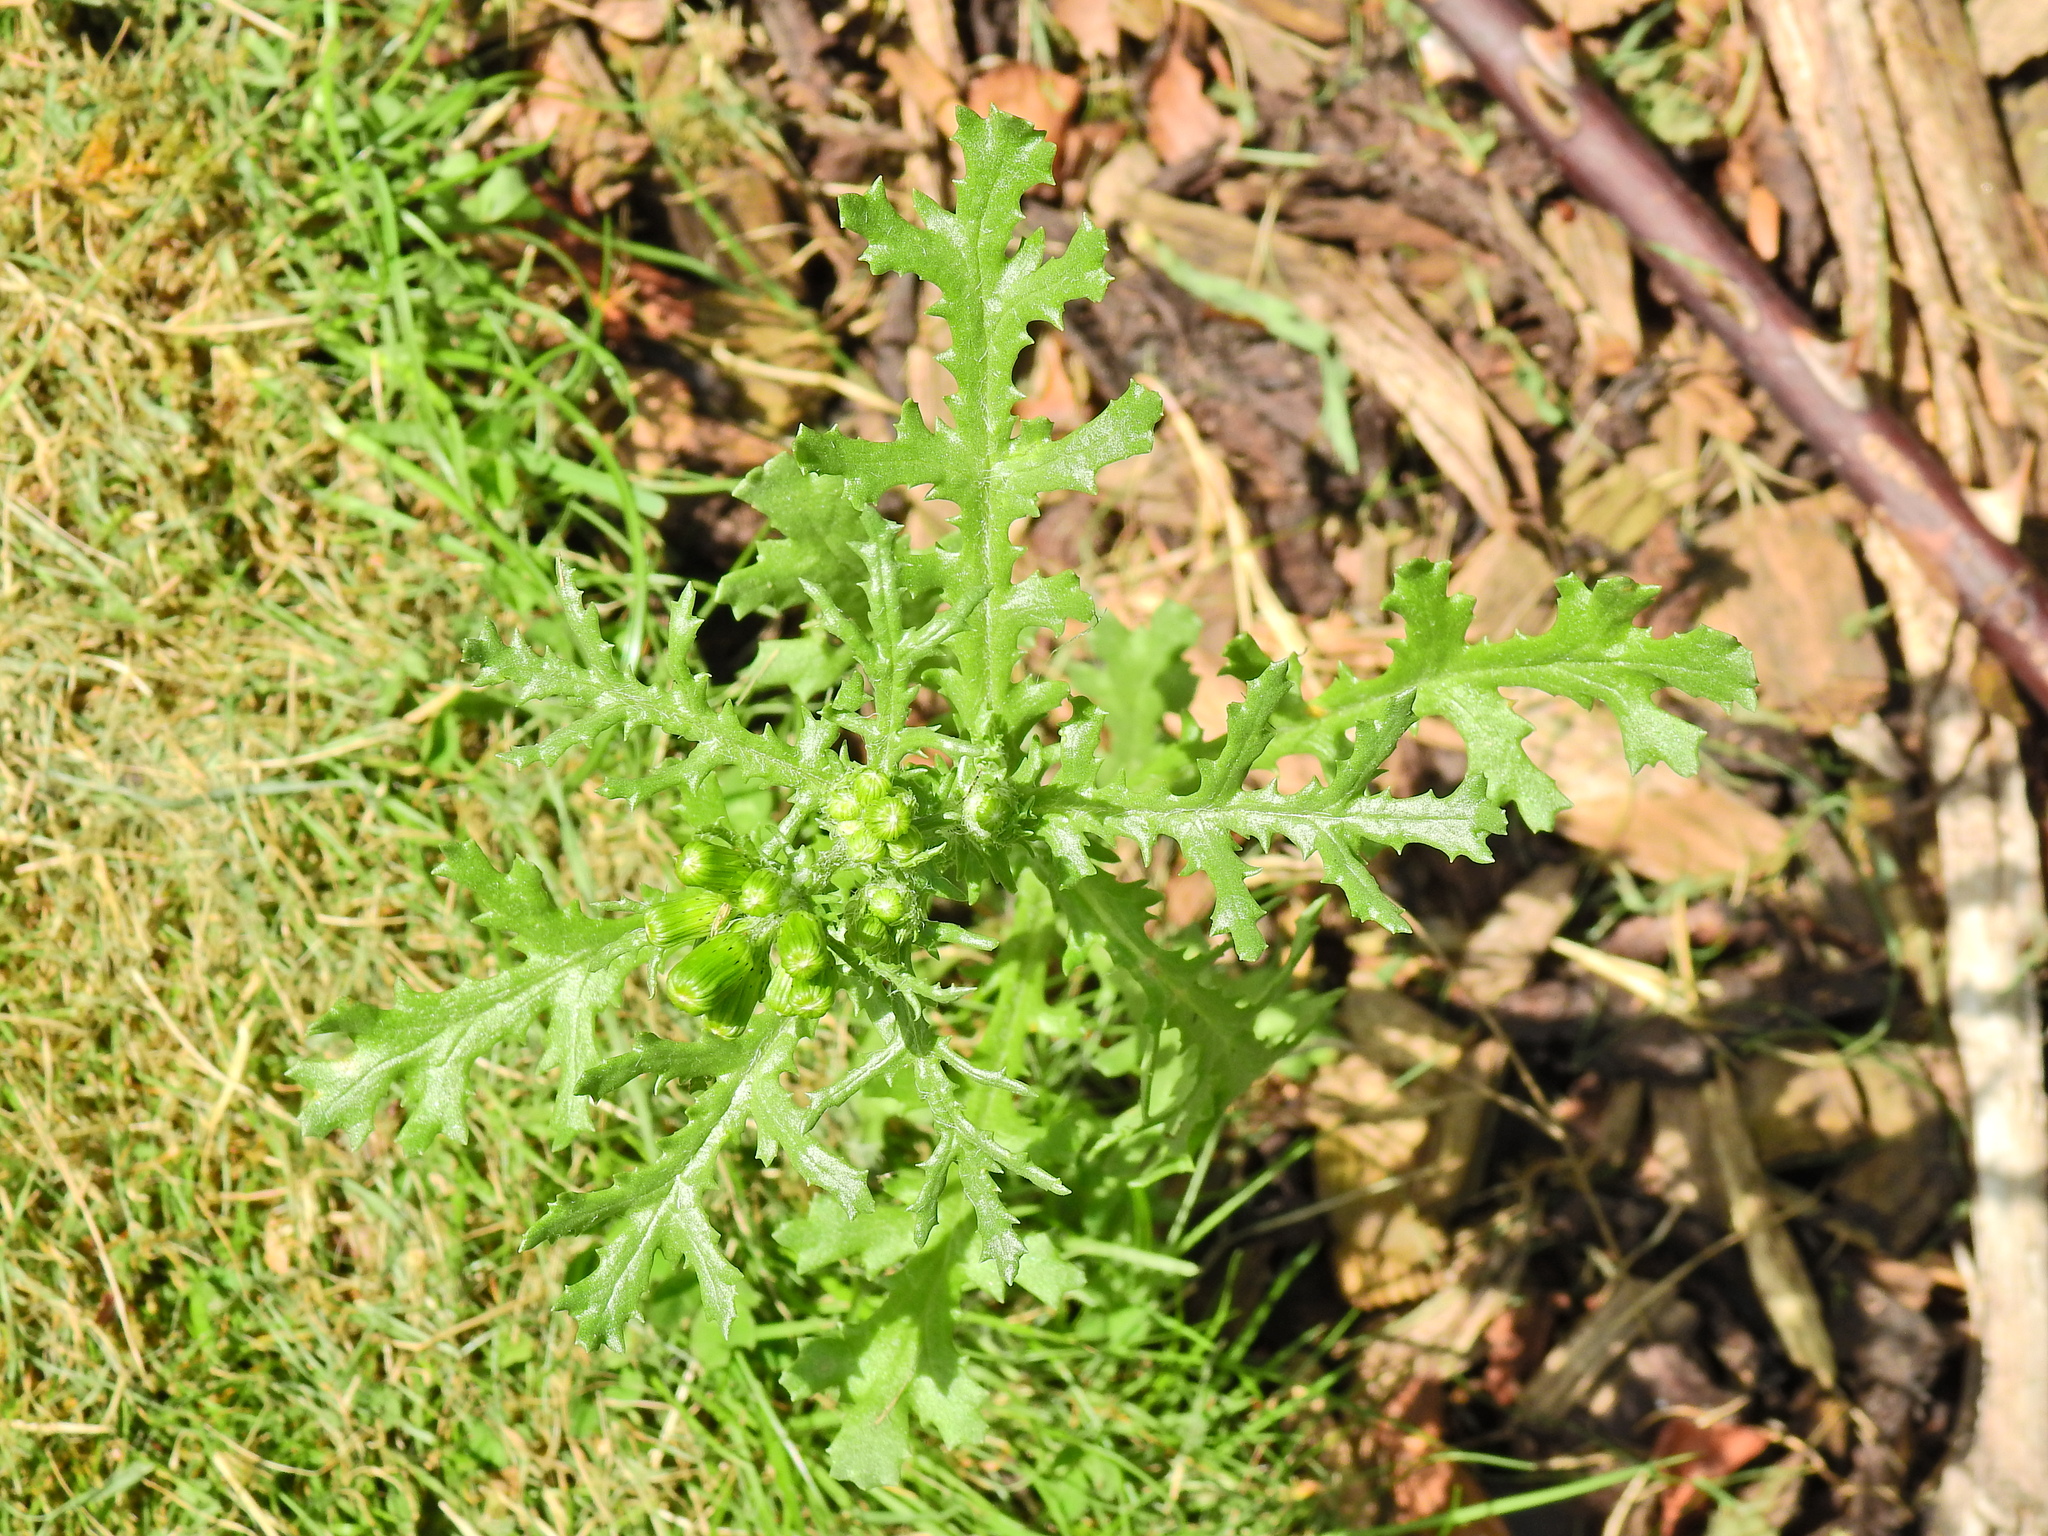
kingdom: Plantae
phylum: Tracheophyta
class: Magnoliopsida
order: Asterales
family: Asteraceae
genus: Senecio
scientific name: Senecio vulgaris
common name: Old-man-in-the-spring
